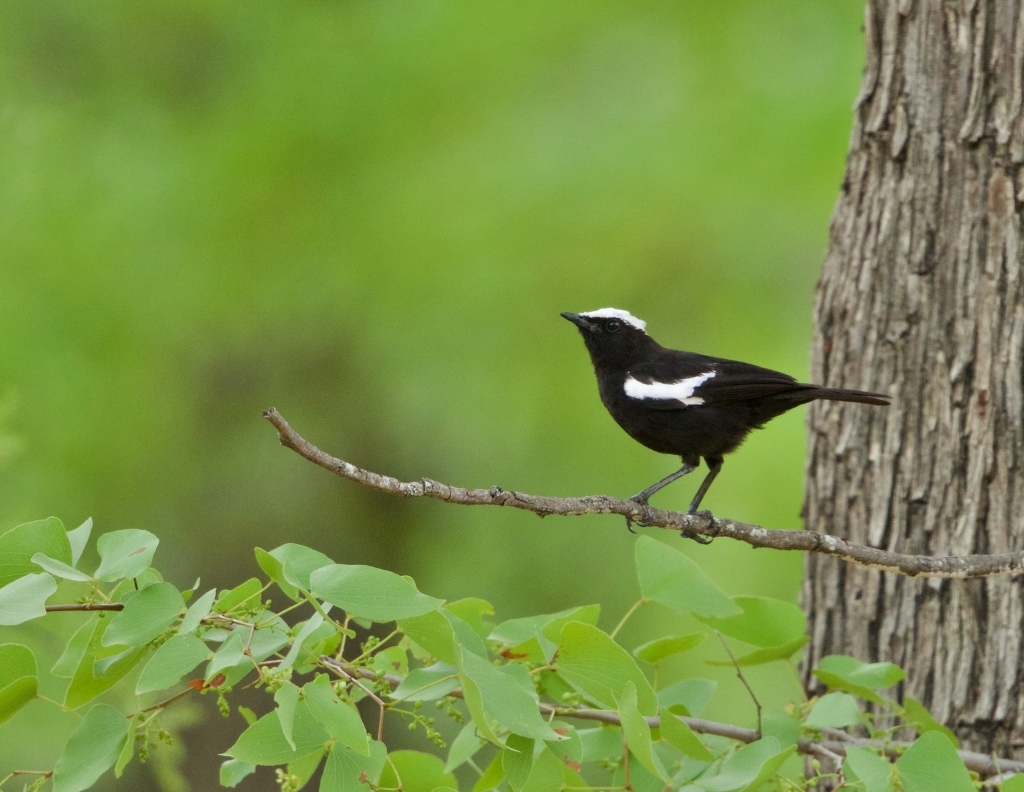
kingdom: Animalia
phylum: Chordata
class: Aves
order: Passeriformes
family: Muscicapidae
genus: Pentholaea
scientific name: Pentholaea arnotti
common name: Arnot's chat
